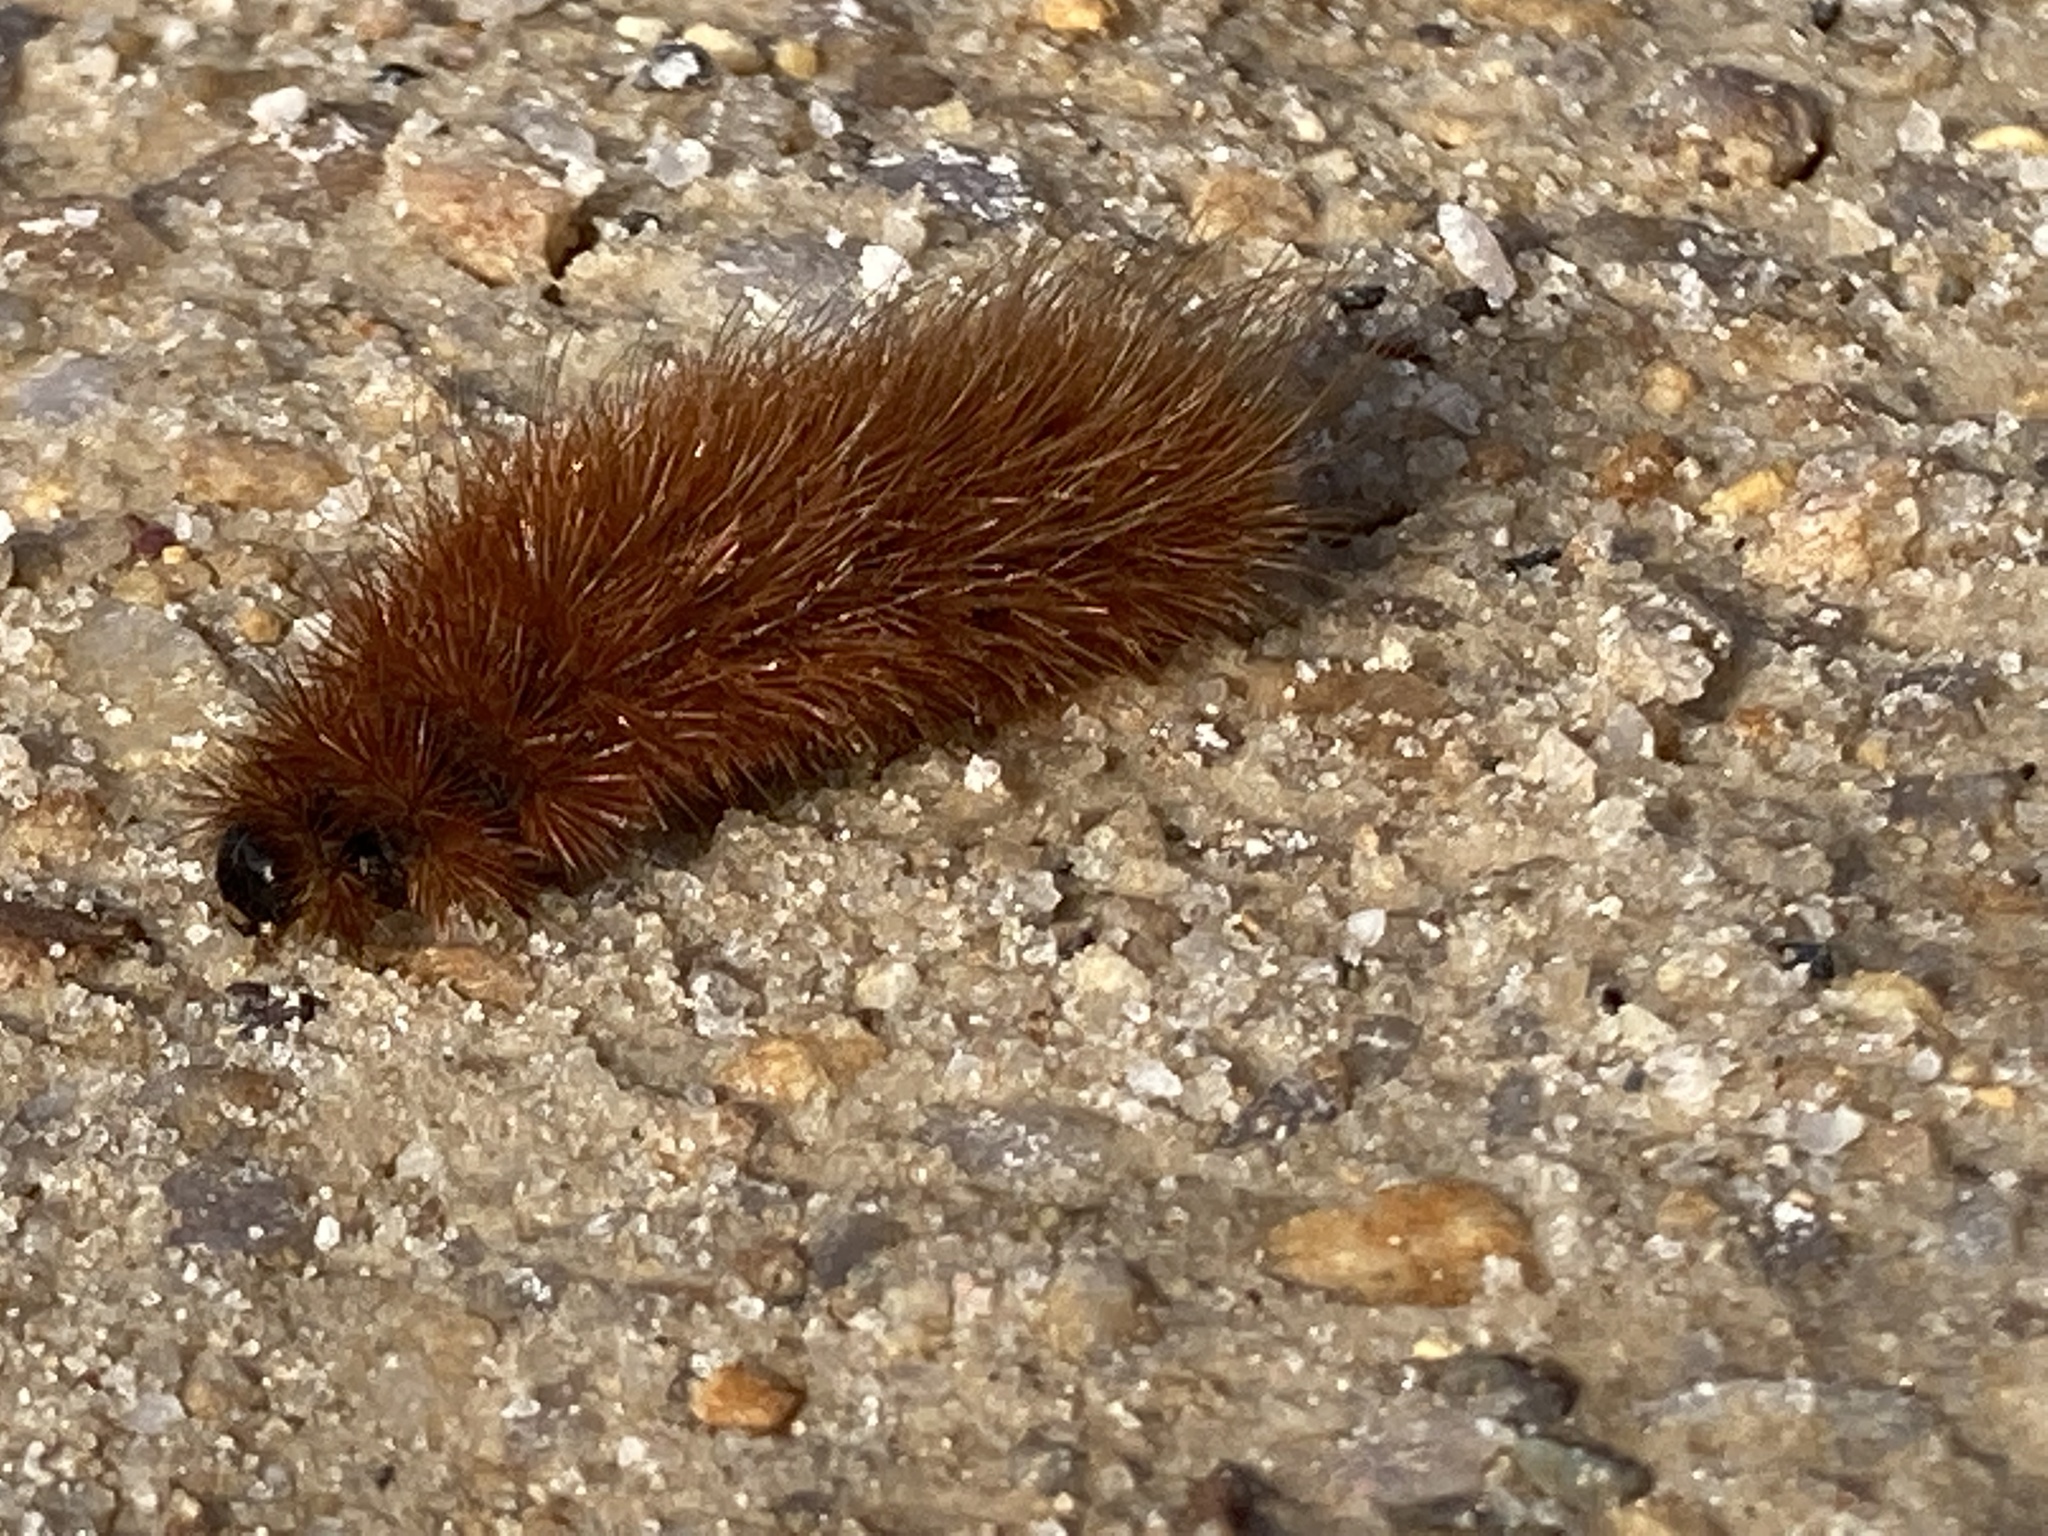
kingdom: Animalia
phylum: Arthropoda
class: Insecta
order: Lepidoptera
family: Erebidae
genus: Phragmatobia
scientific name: Phragmatobia fuliginosa
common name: Ruby tiger
